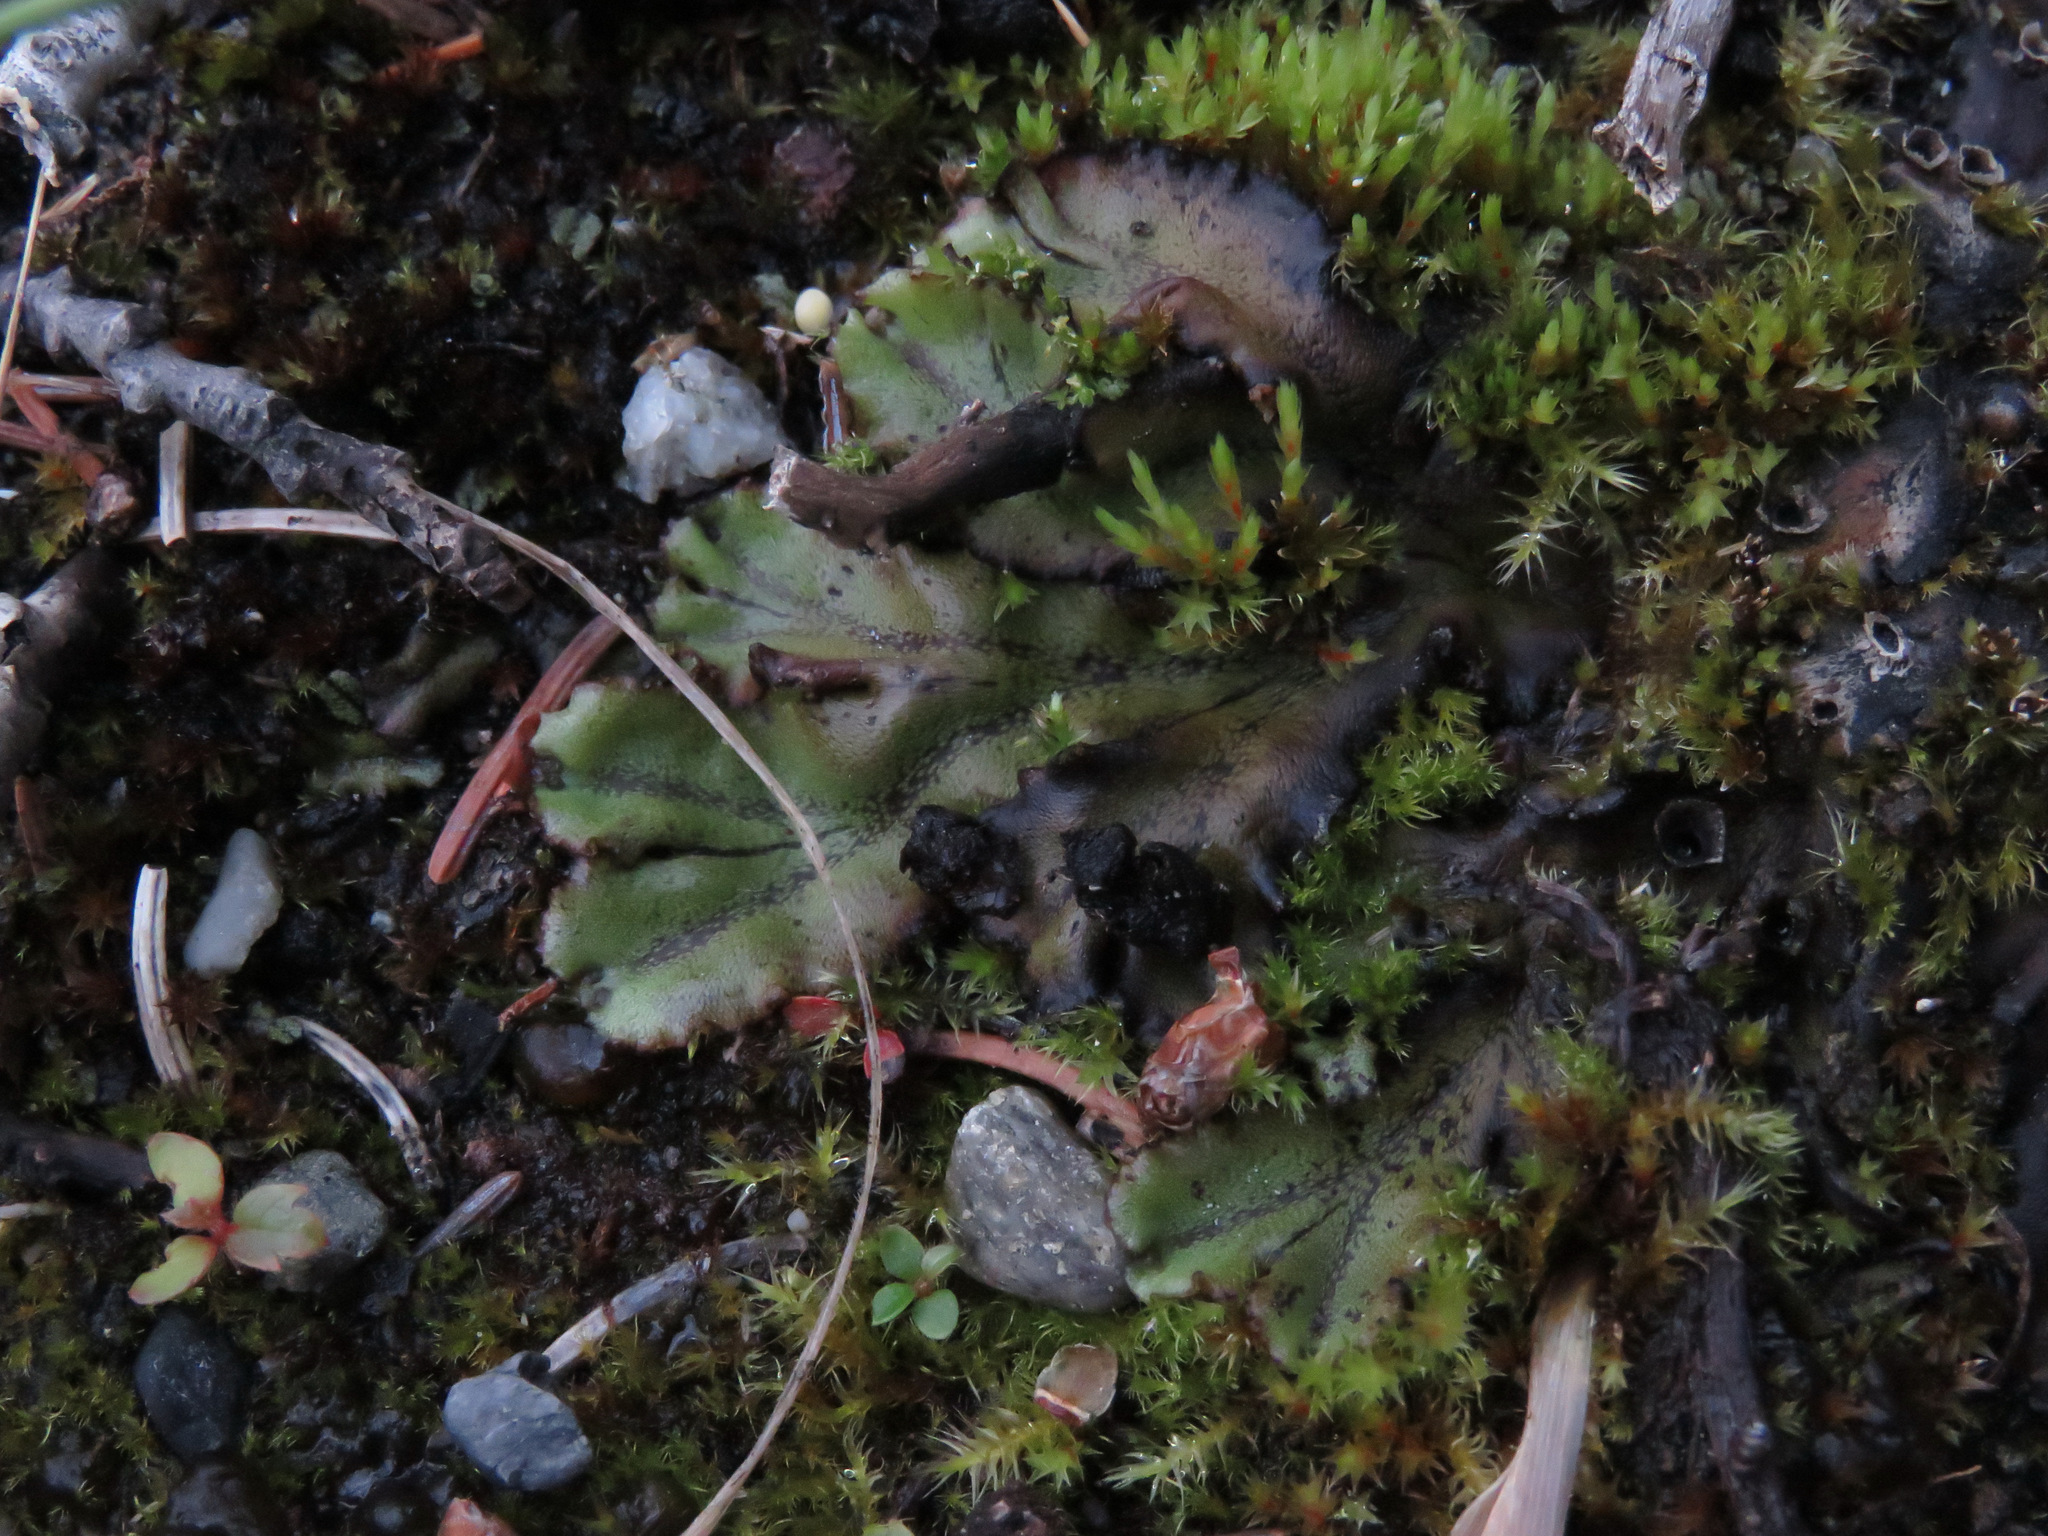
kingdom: Plantae
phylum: Marchantiophyta
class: Marchantiopsida
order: Marchantiales
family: Marchantiaceae
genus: Marchantia
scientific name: Marchantia polymorpha
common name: Common liverwort
